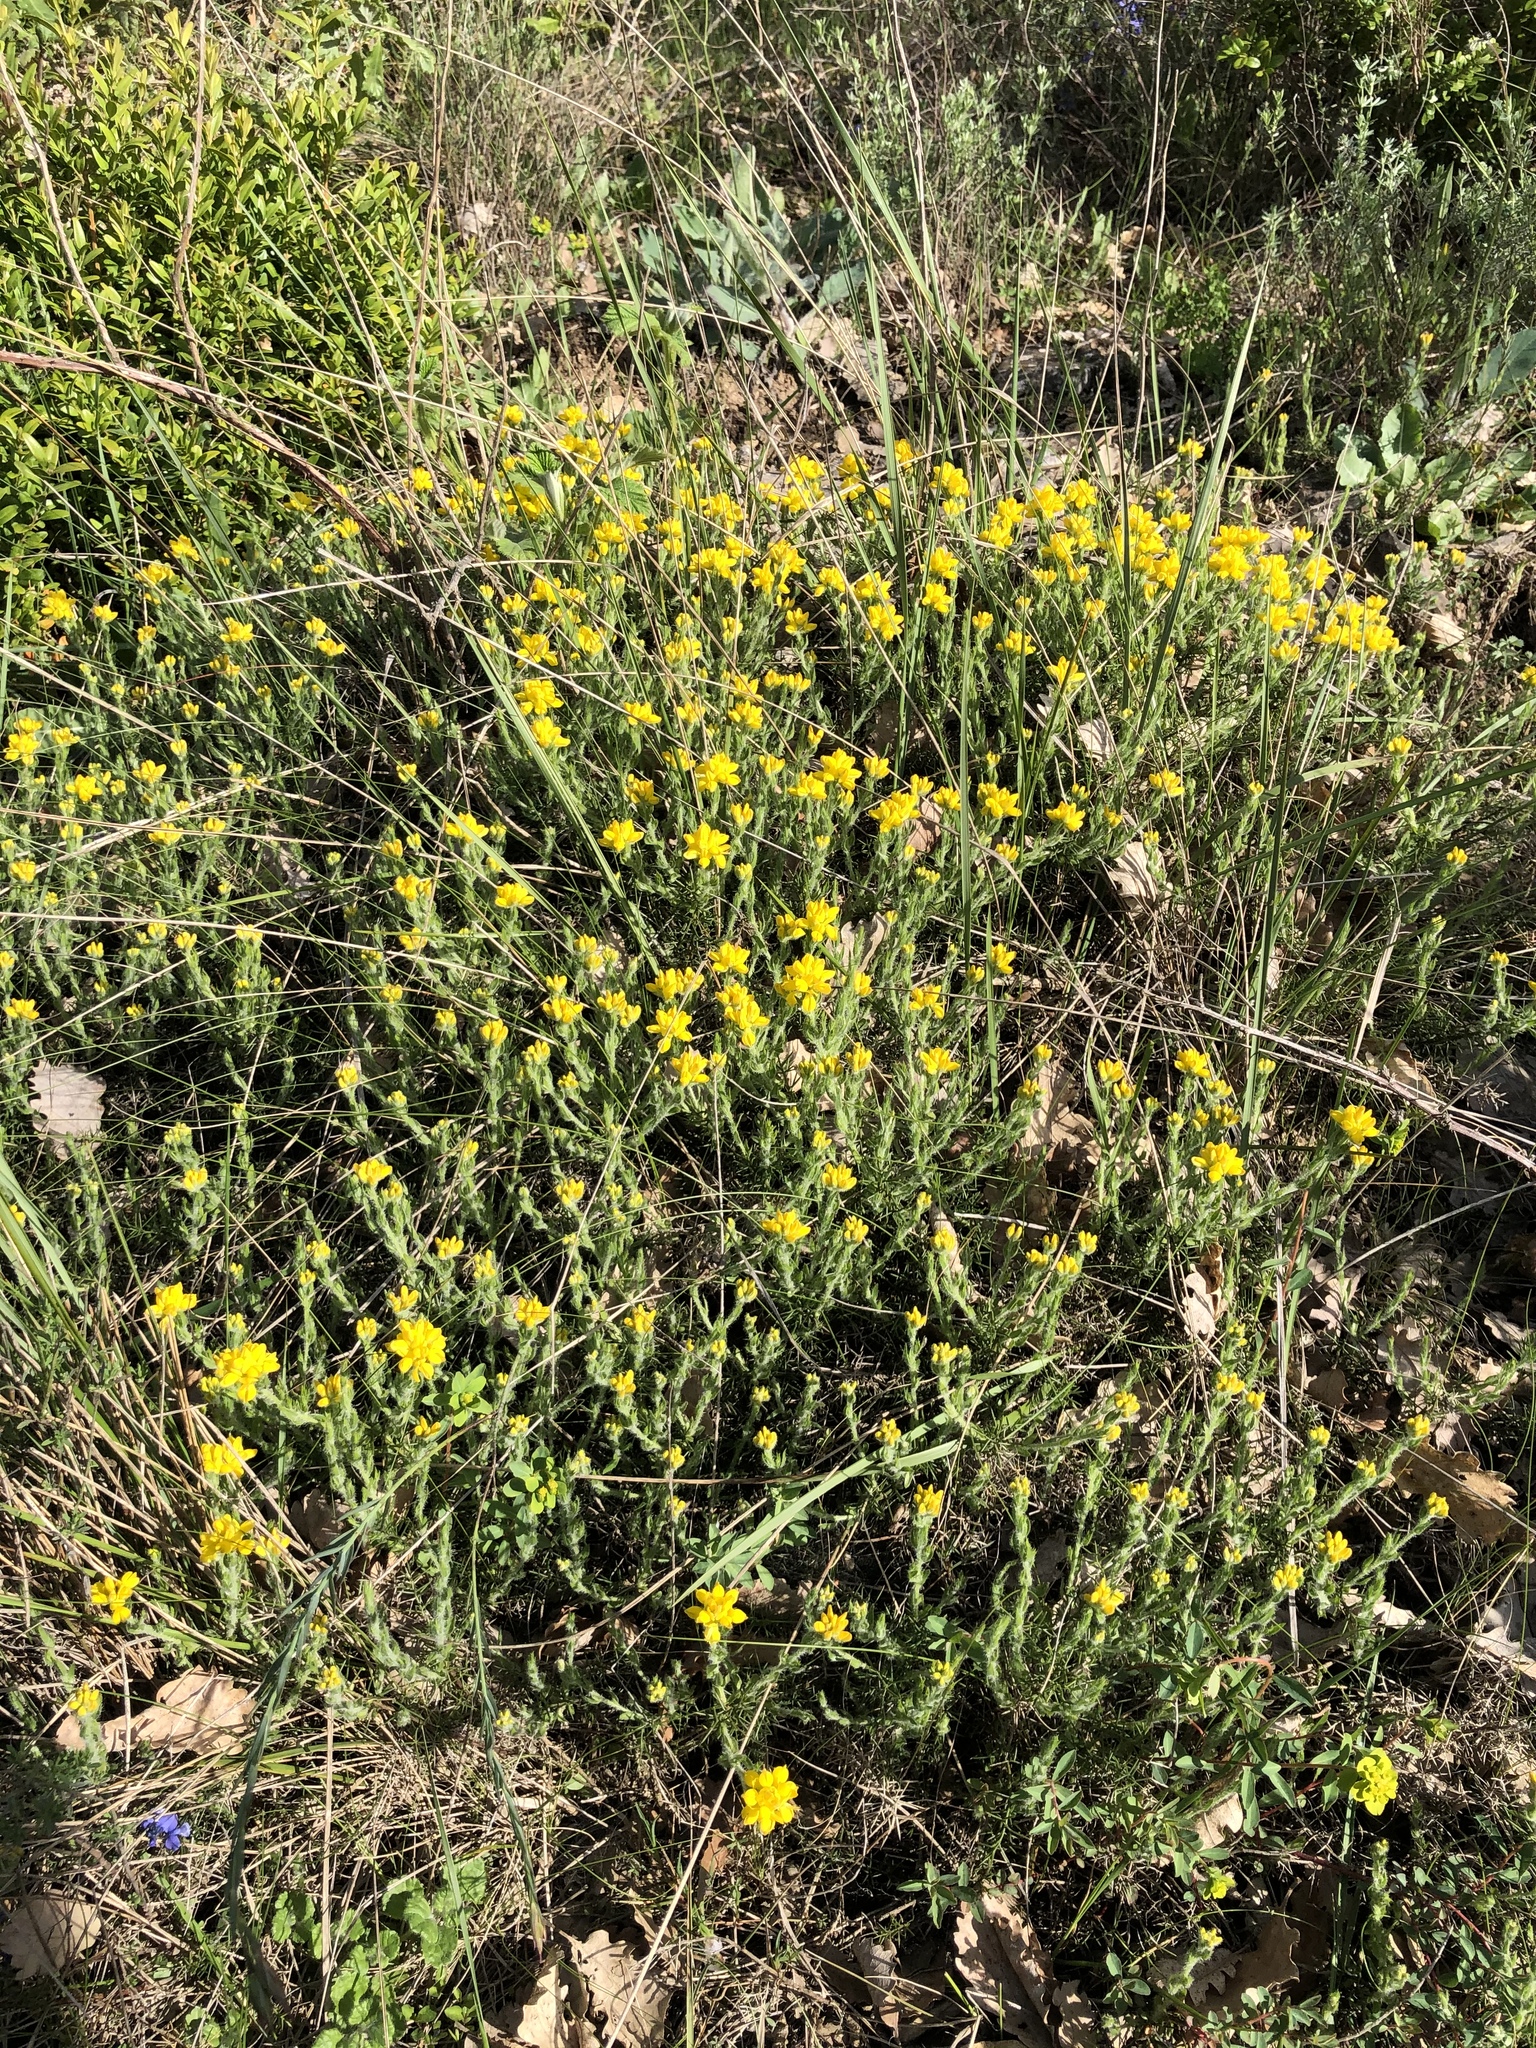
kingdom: Plantae
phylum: Tracheophyta
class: Magnoliopsida
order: Fabales
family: Fabaceae
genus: Genista
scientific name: Genista hispanica
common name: Spanish gorse
